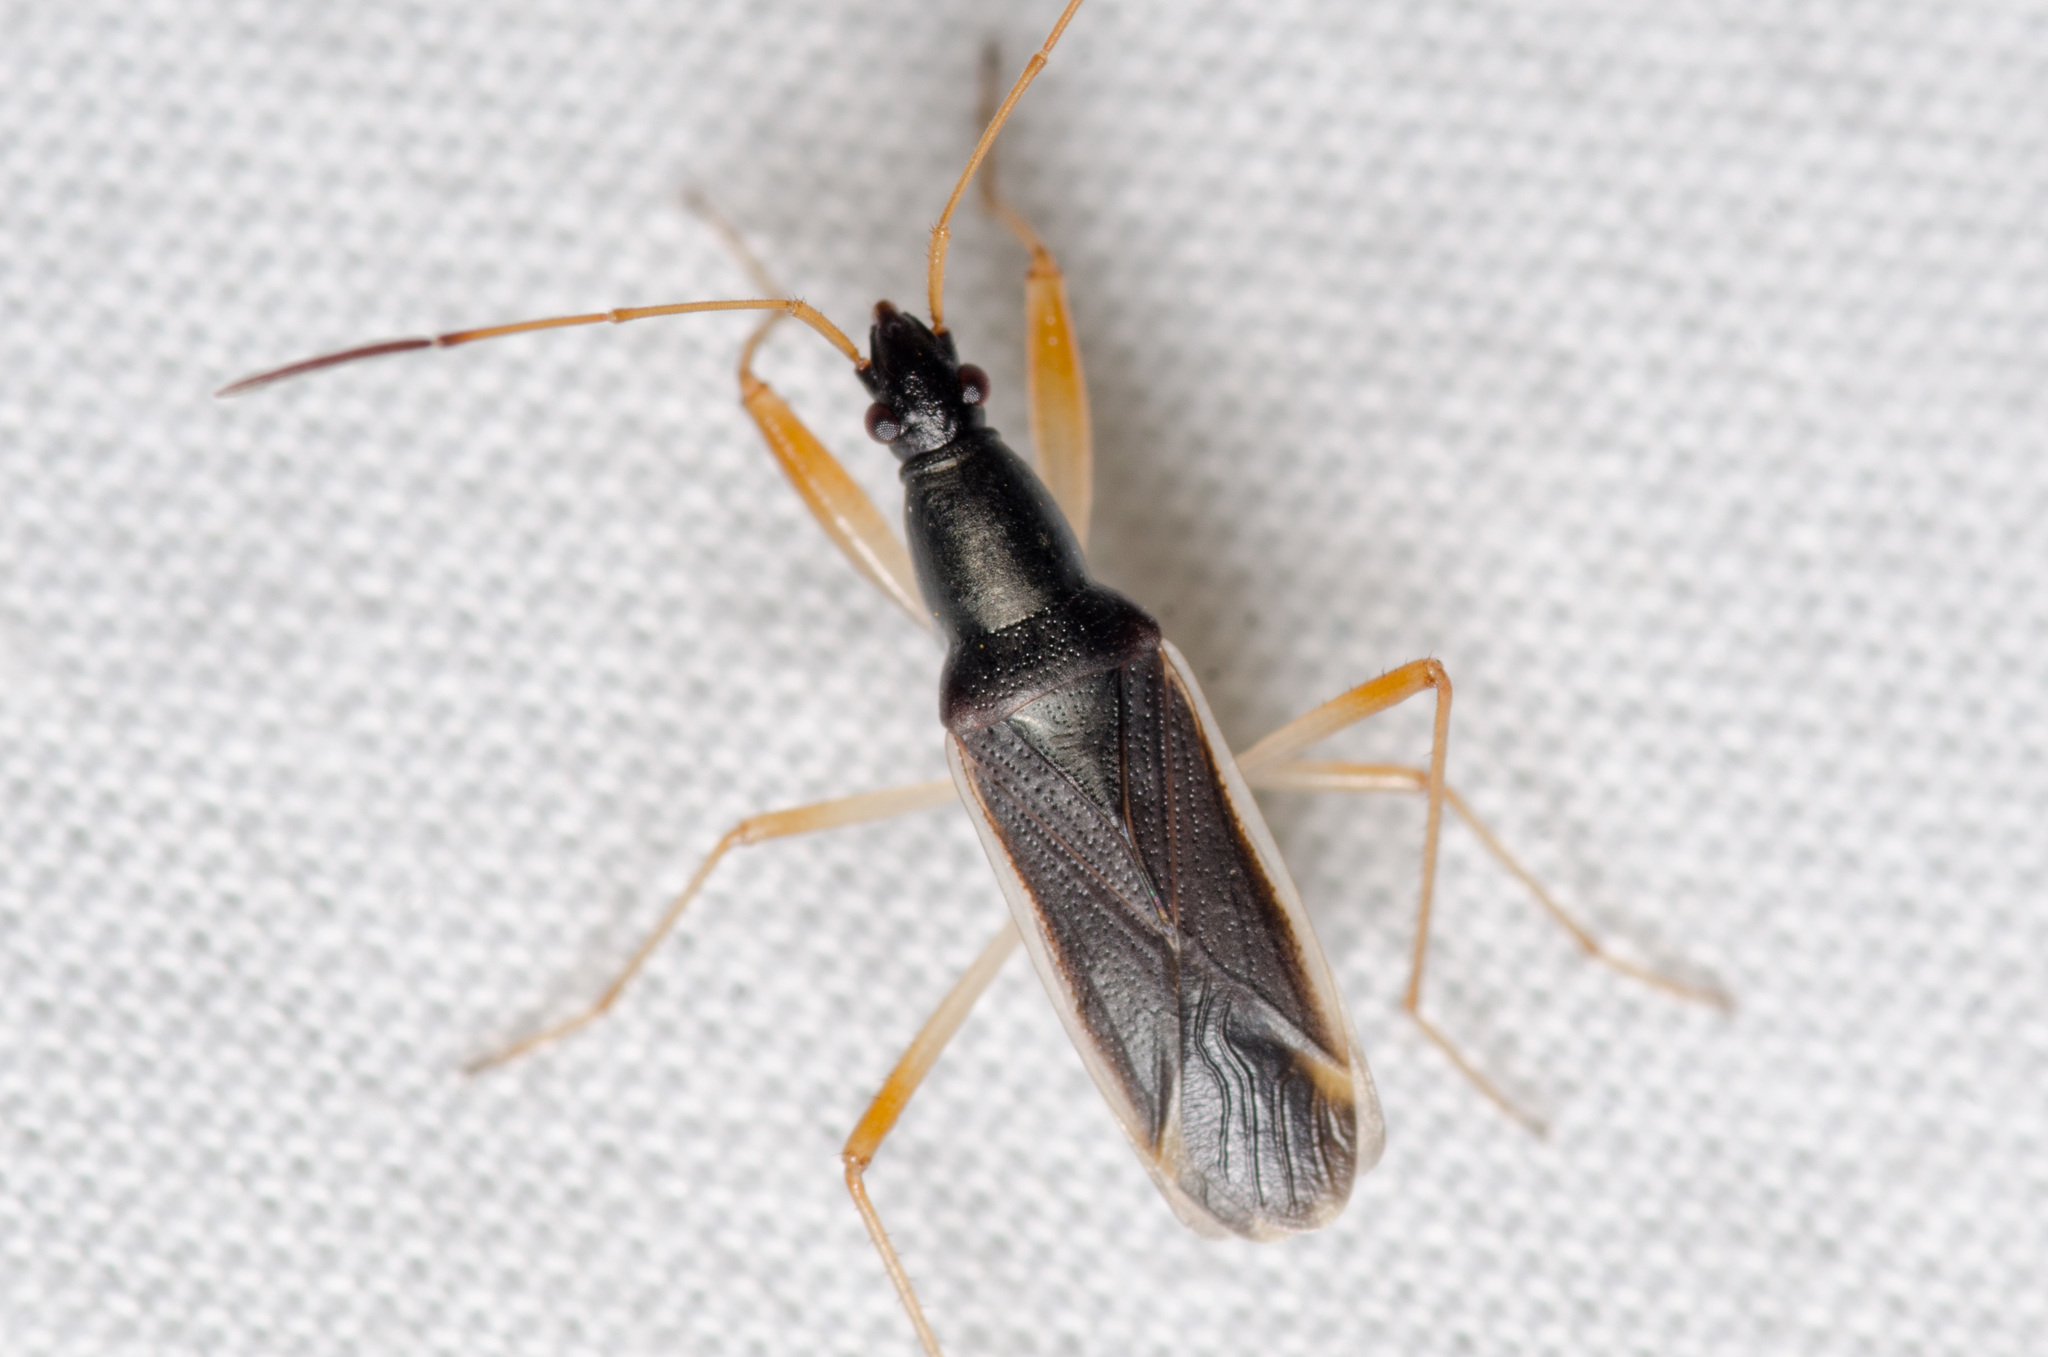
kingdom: Animalia
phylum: Arthropoda
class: Insecta
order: Hemiptera
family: Rhyparochromidae
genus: Cnemodus
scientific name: Cnemodus mavortius
